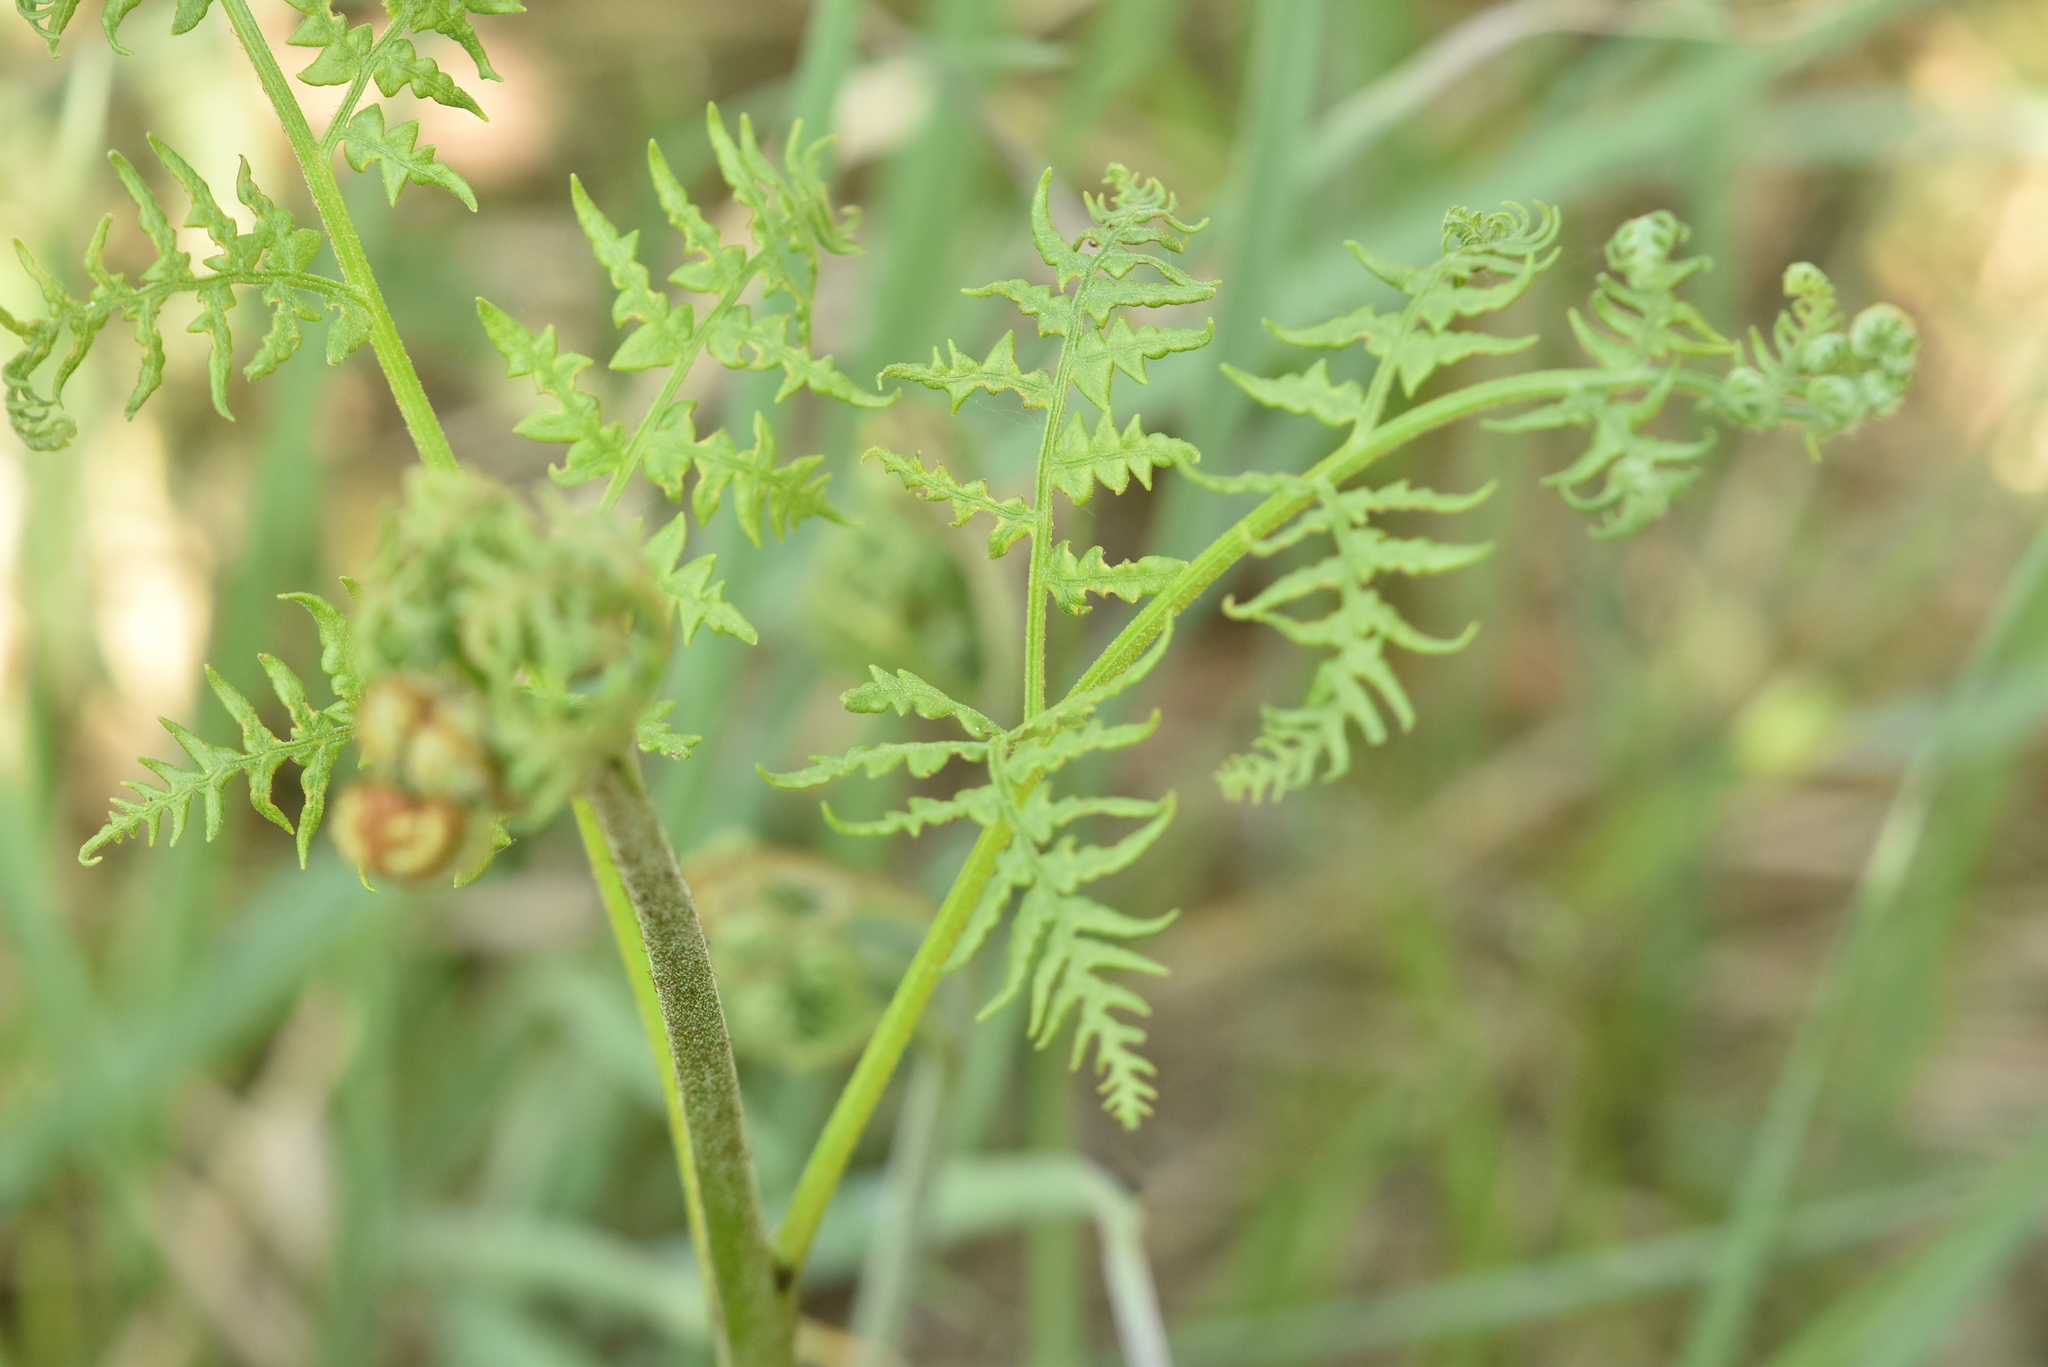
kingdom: Plantae
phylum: Tracheophyta
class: Polypodiopsida
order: Polypodiales
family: Dennstaedtiaceae
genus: Pteridium
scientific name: Pteridium aquilinum
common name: Bracken
